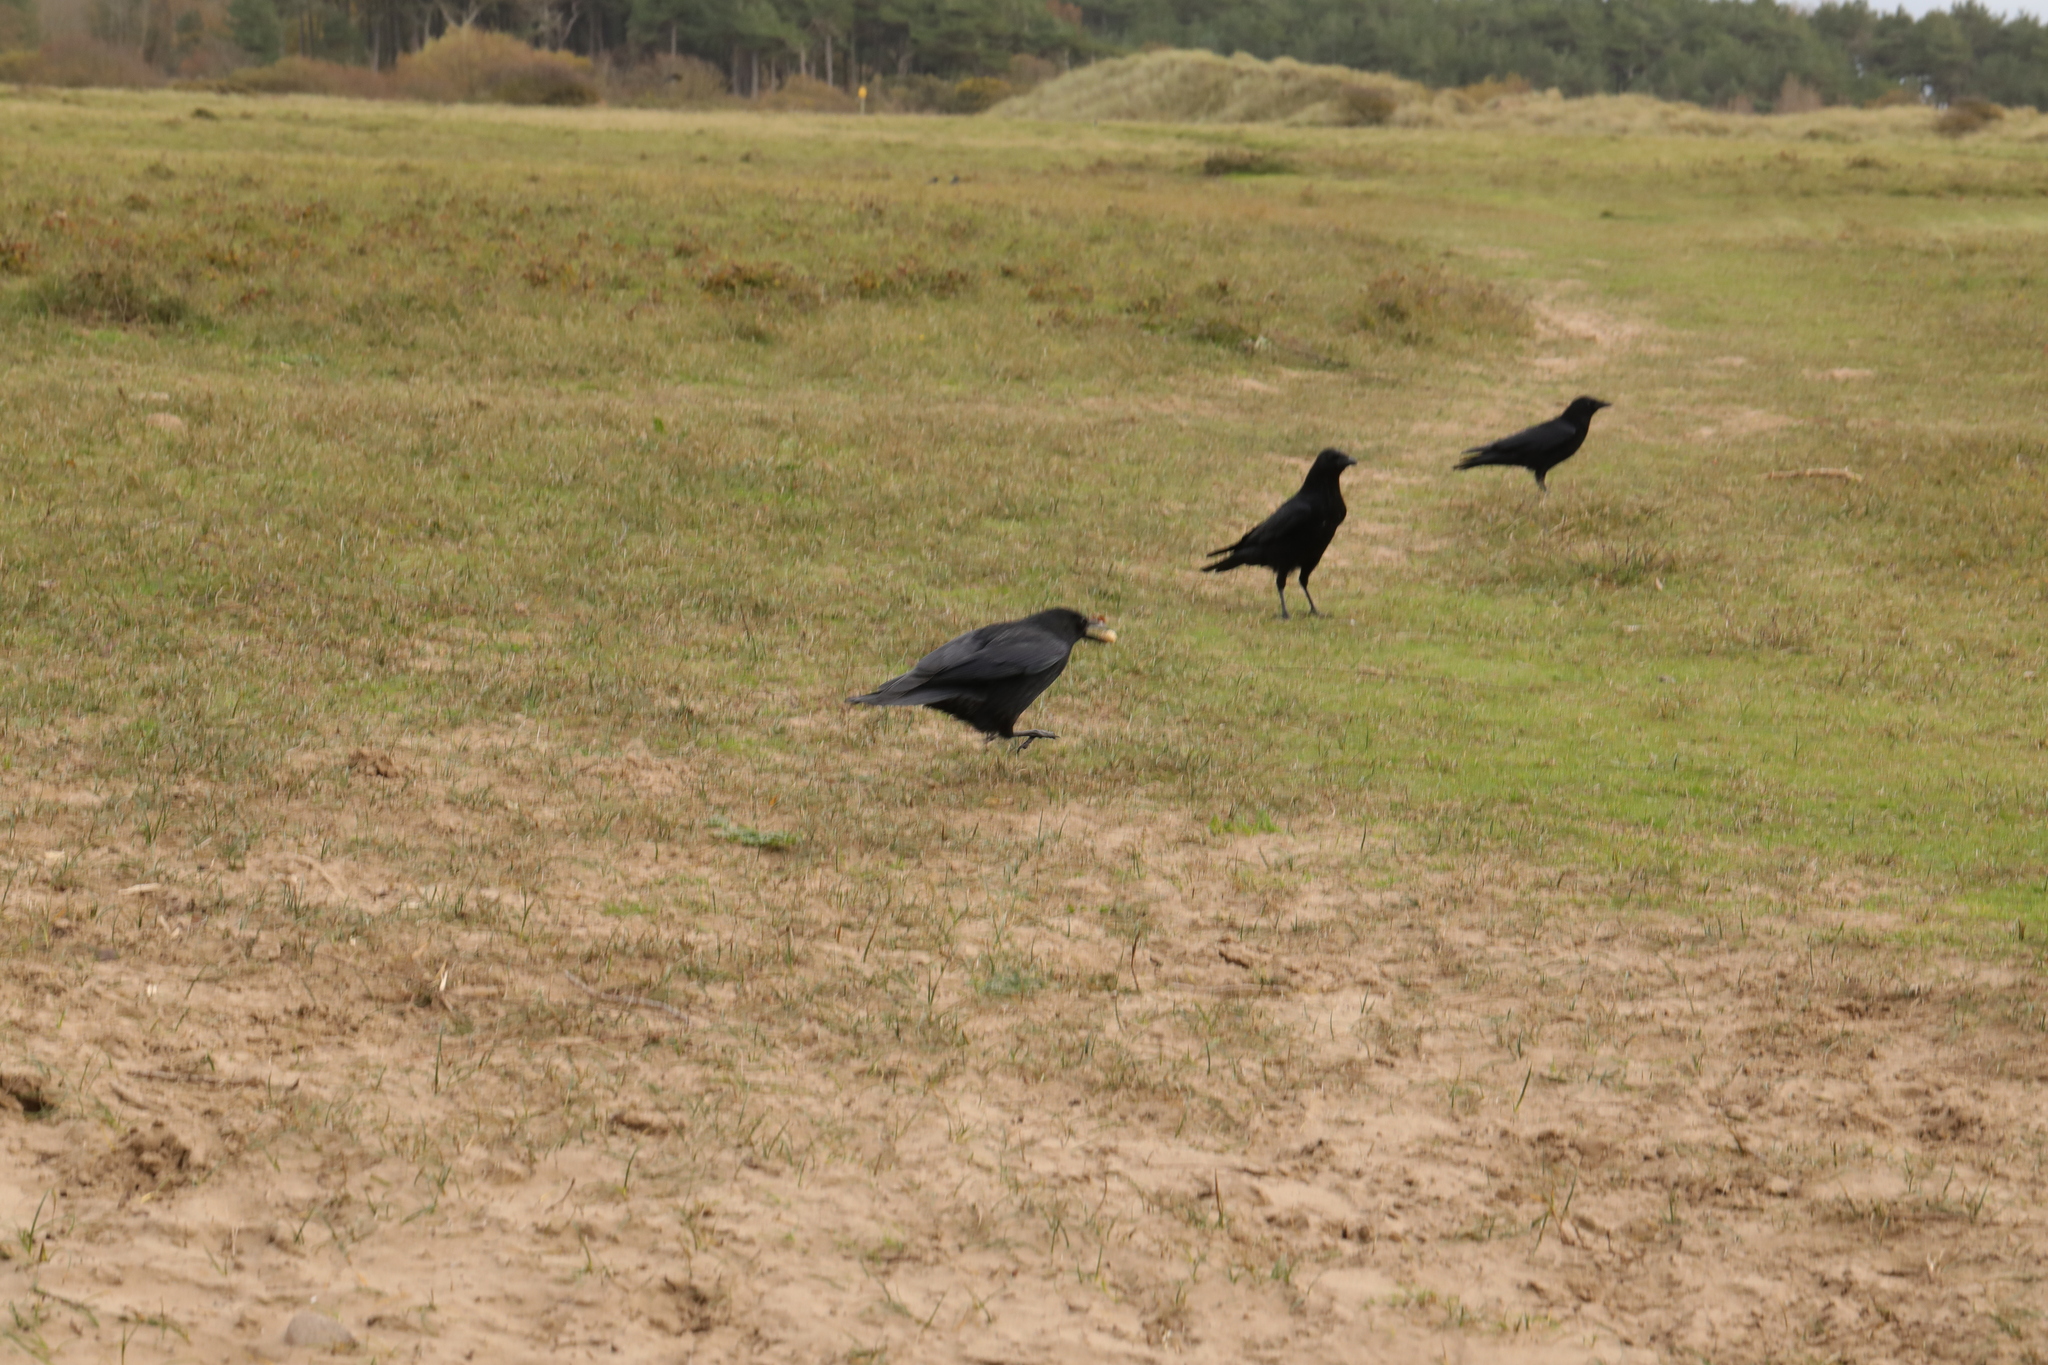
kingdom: Animalia
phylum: Chordata
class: Aves
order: Passeriformes
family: Corvidae
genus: Corvus
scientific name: Corvus corone
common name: Carrion crow
